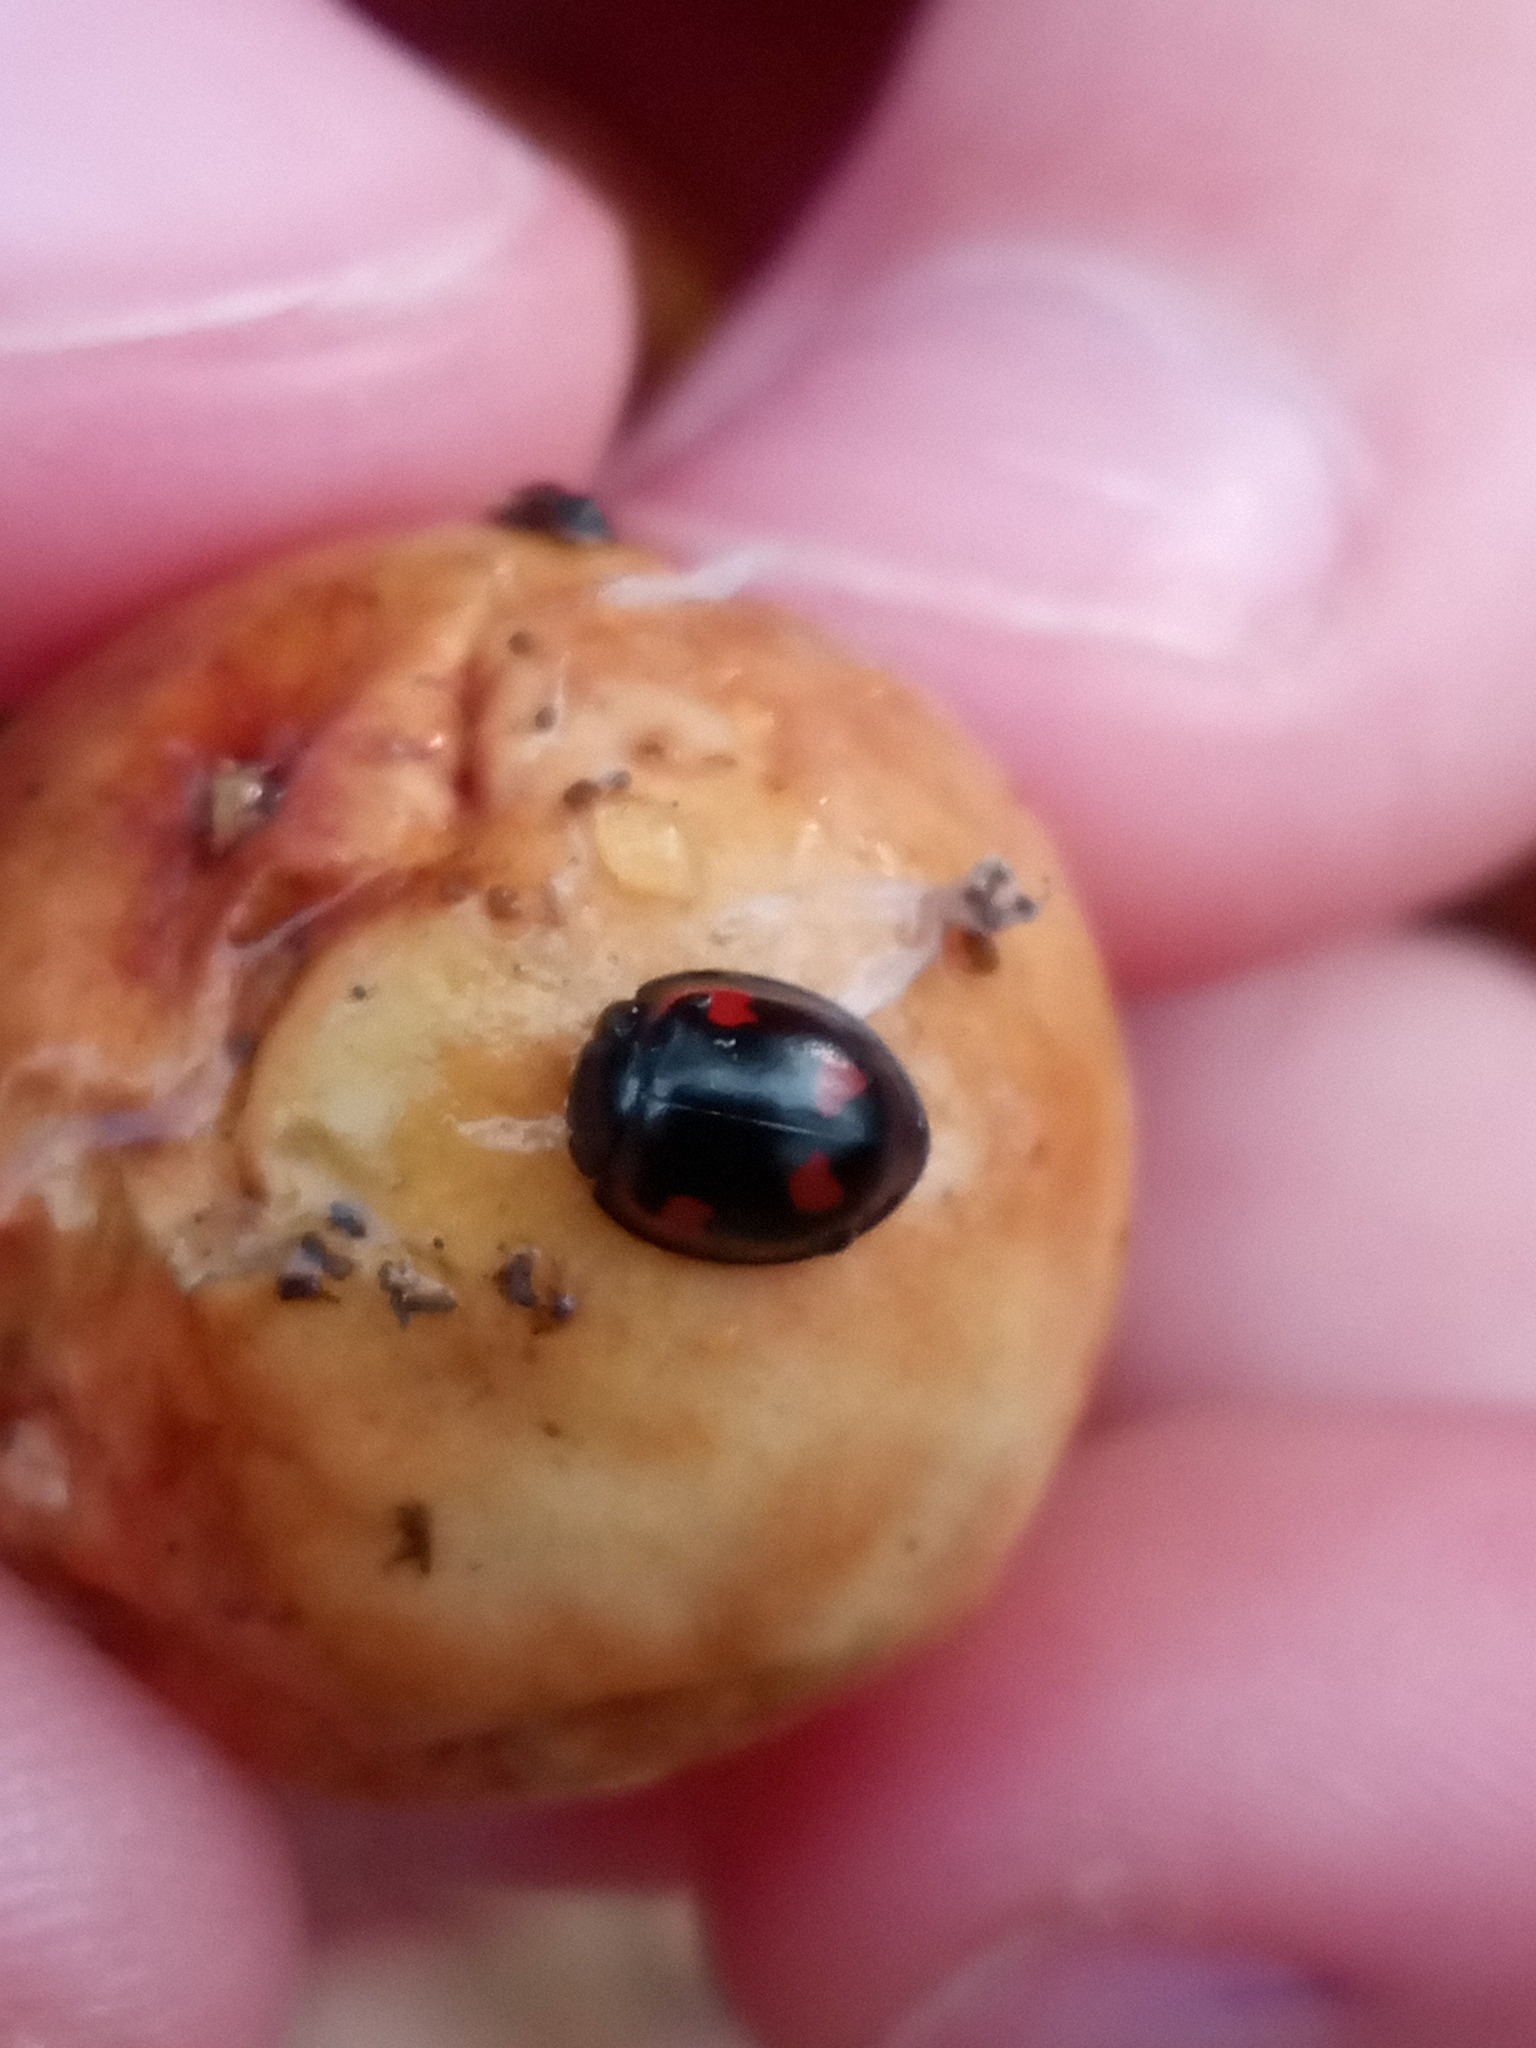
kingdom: Animalia
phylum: Arthropoda
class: Insecta
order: Coleoptera
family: Coccinellidae
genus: Brumus
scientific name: Brumus quadripustulatus
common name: Ladybird beetle
